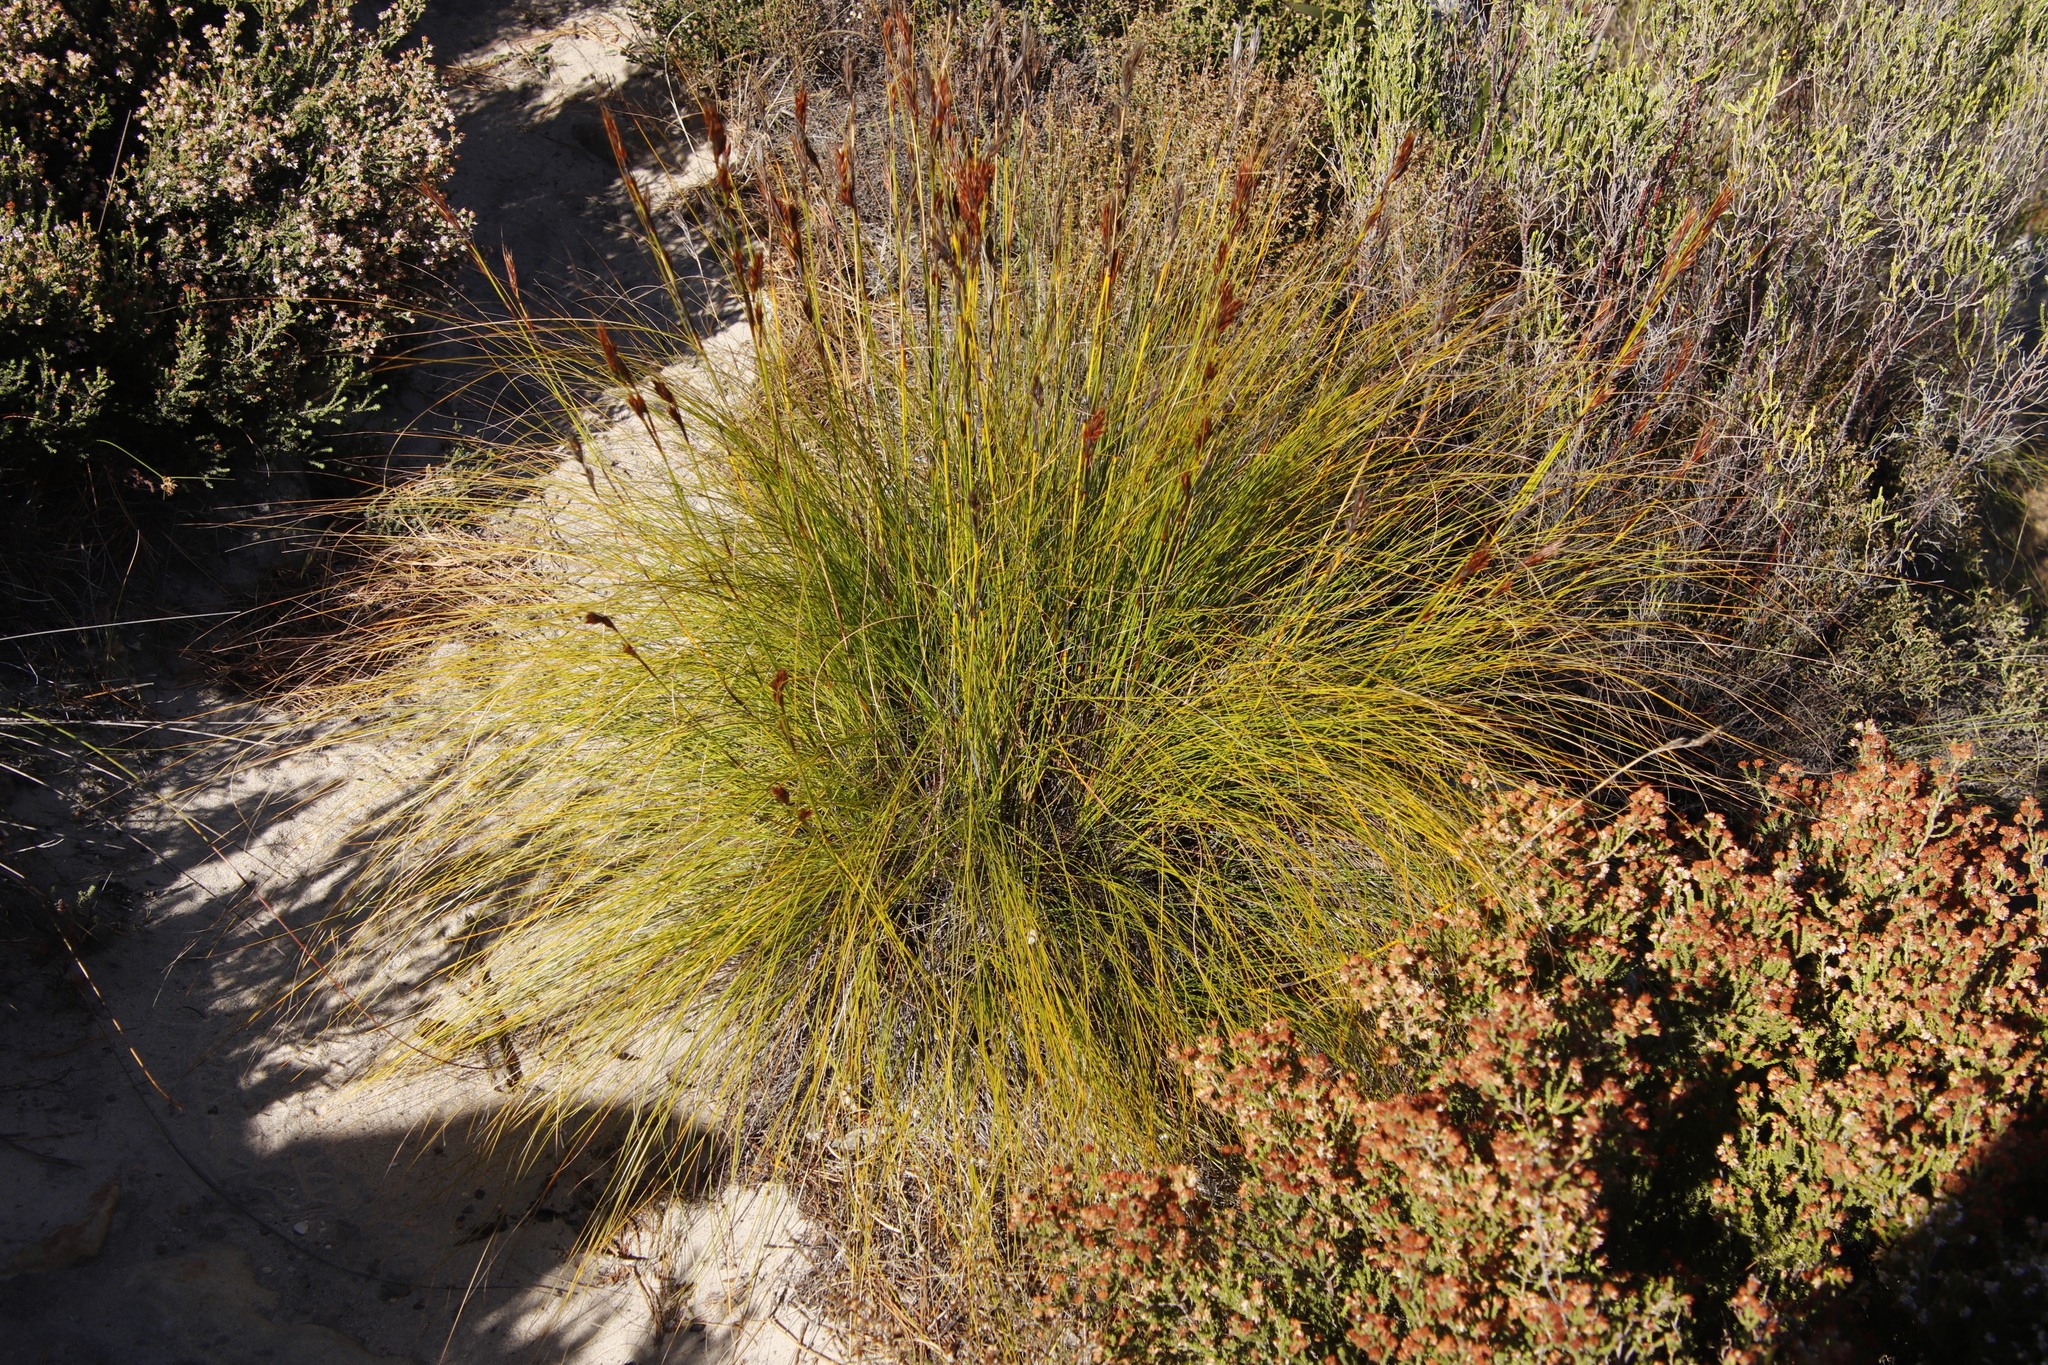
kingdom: Plantae
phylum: Tracheophyta
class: Liliopsida
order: Poales
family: Cyperaceae
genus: Tetraria
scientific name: Tetraria ustulata
